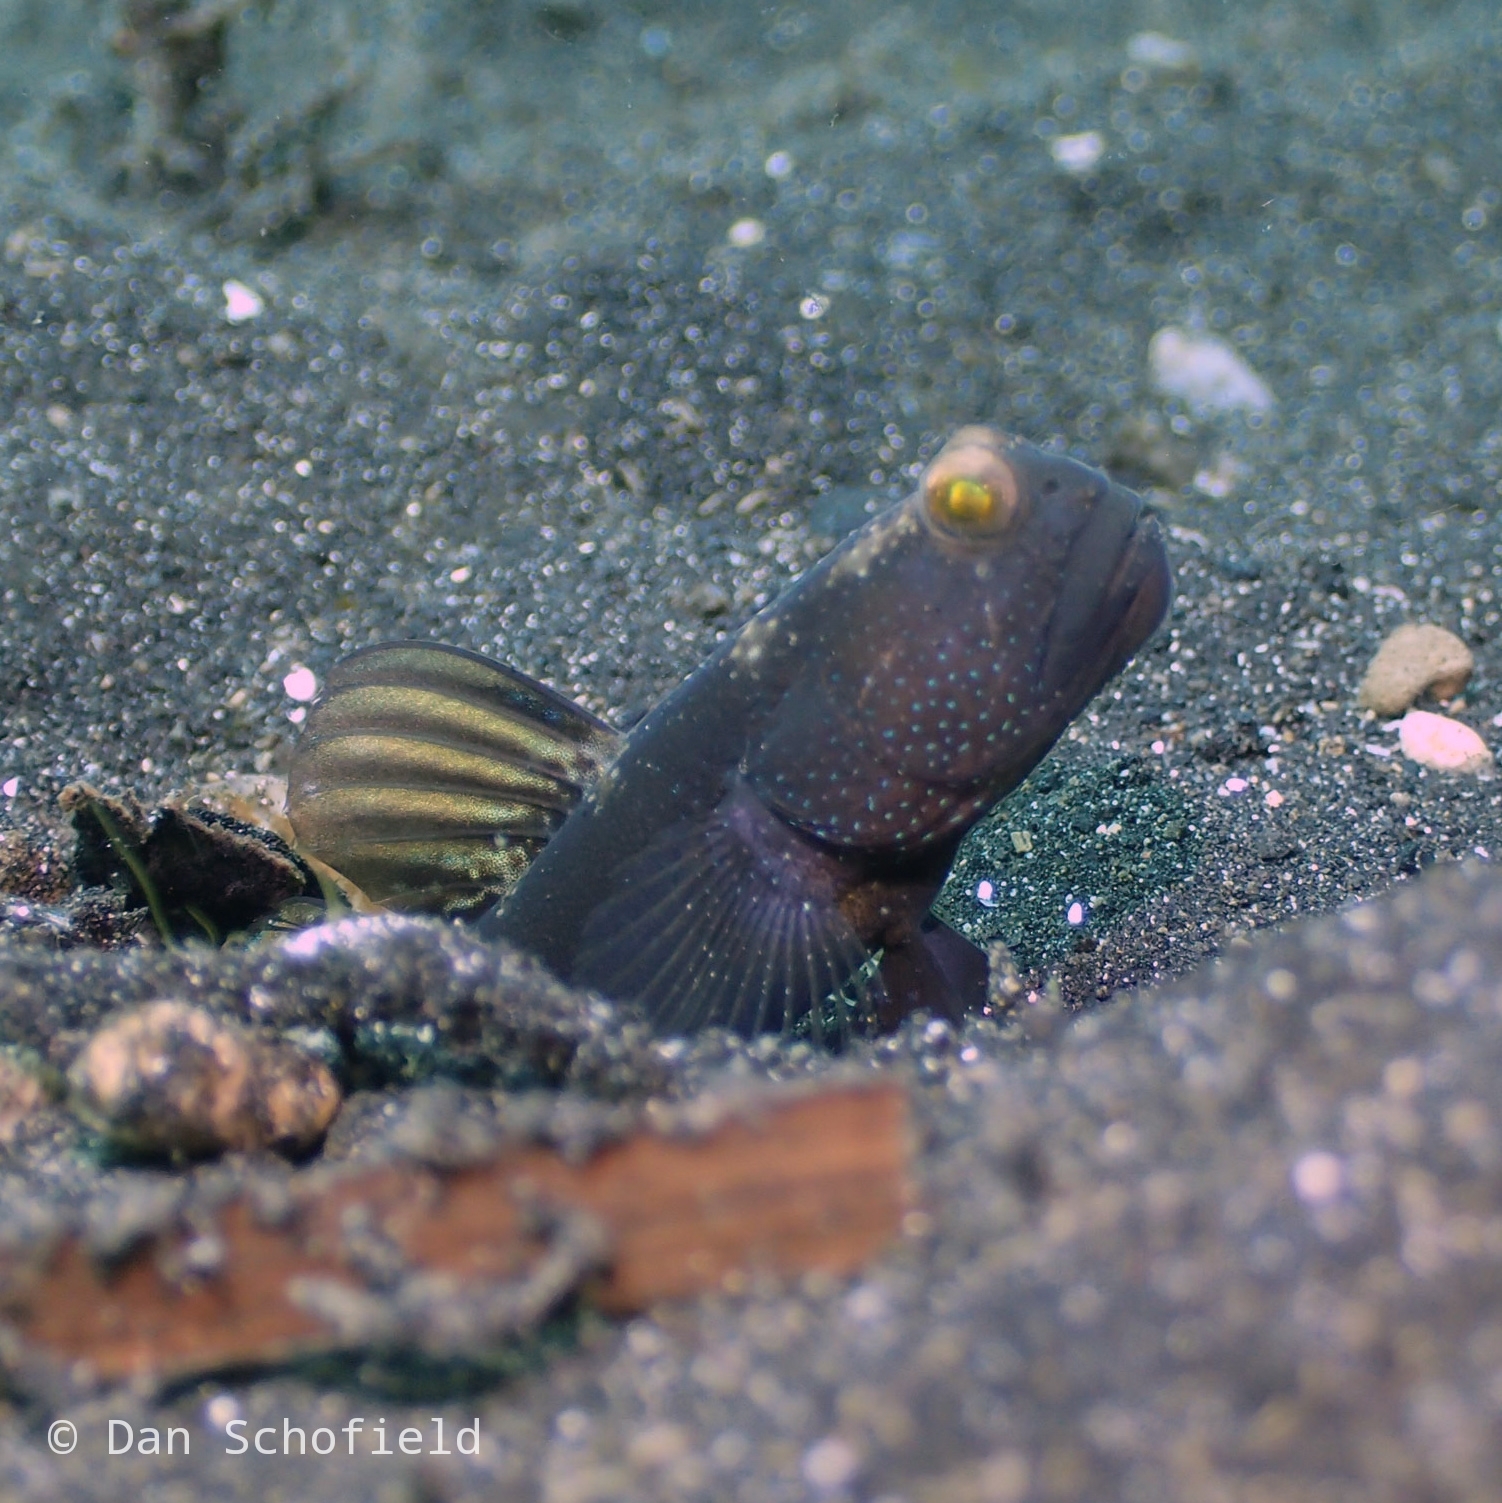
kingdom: Animalia
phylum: Chordata
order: Perciformes
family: Gobiidae
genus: Cryptocentrus
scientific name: Cryptocentrus fasciatus
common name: Barred prawn-goby
